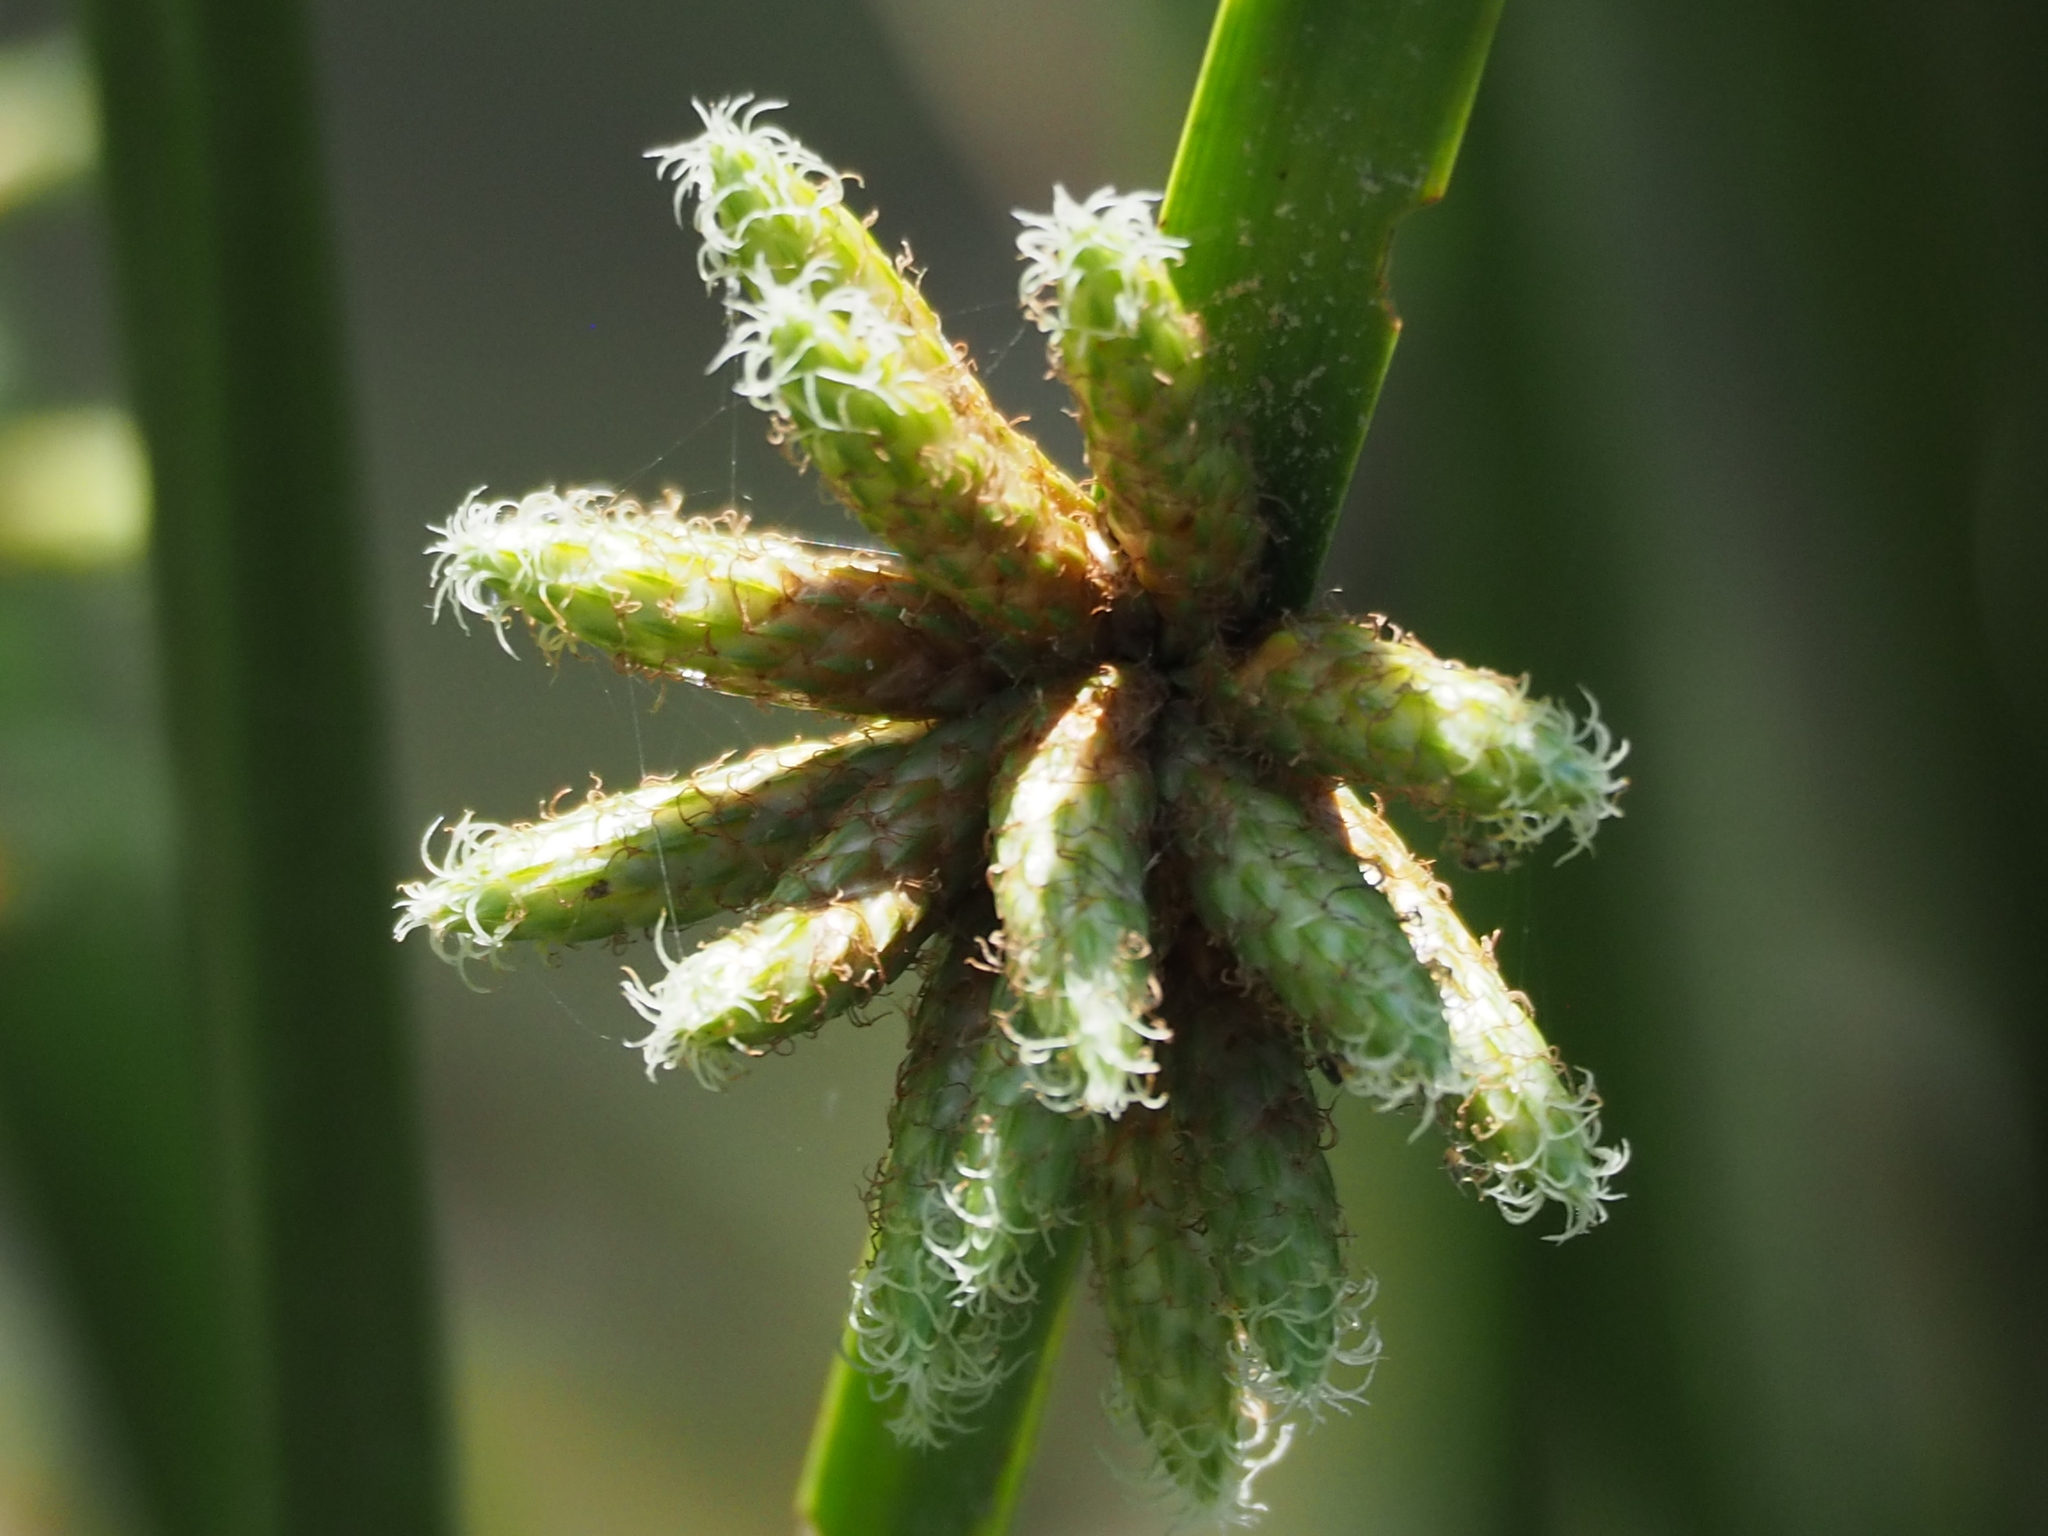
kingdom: Plantae
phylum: Tracheophyta
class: Liliopsida
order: Poales
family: Cyperaceae
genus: Schoenoplectiella
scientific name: Schoenoplectiella mucronata
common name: Bog bulrush
